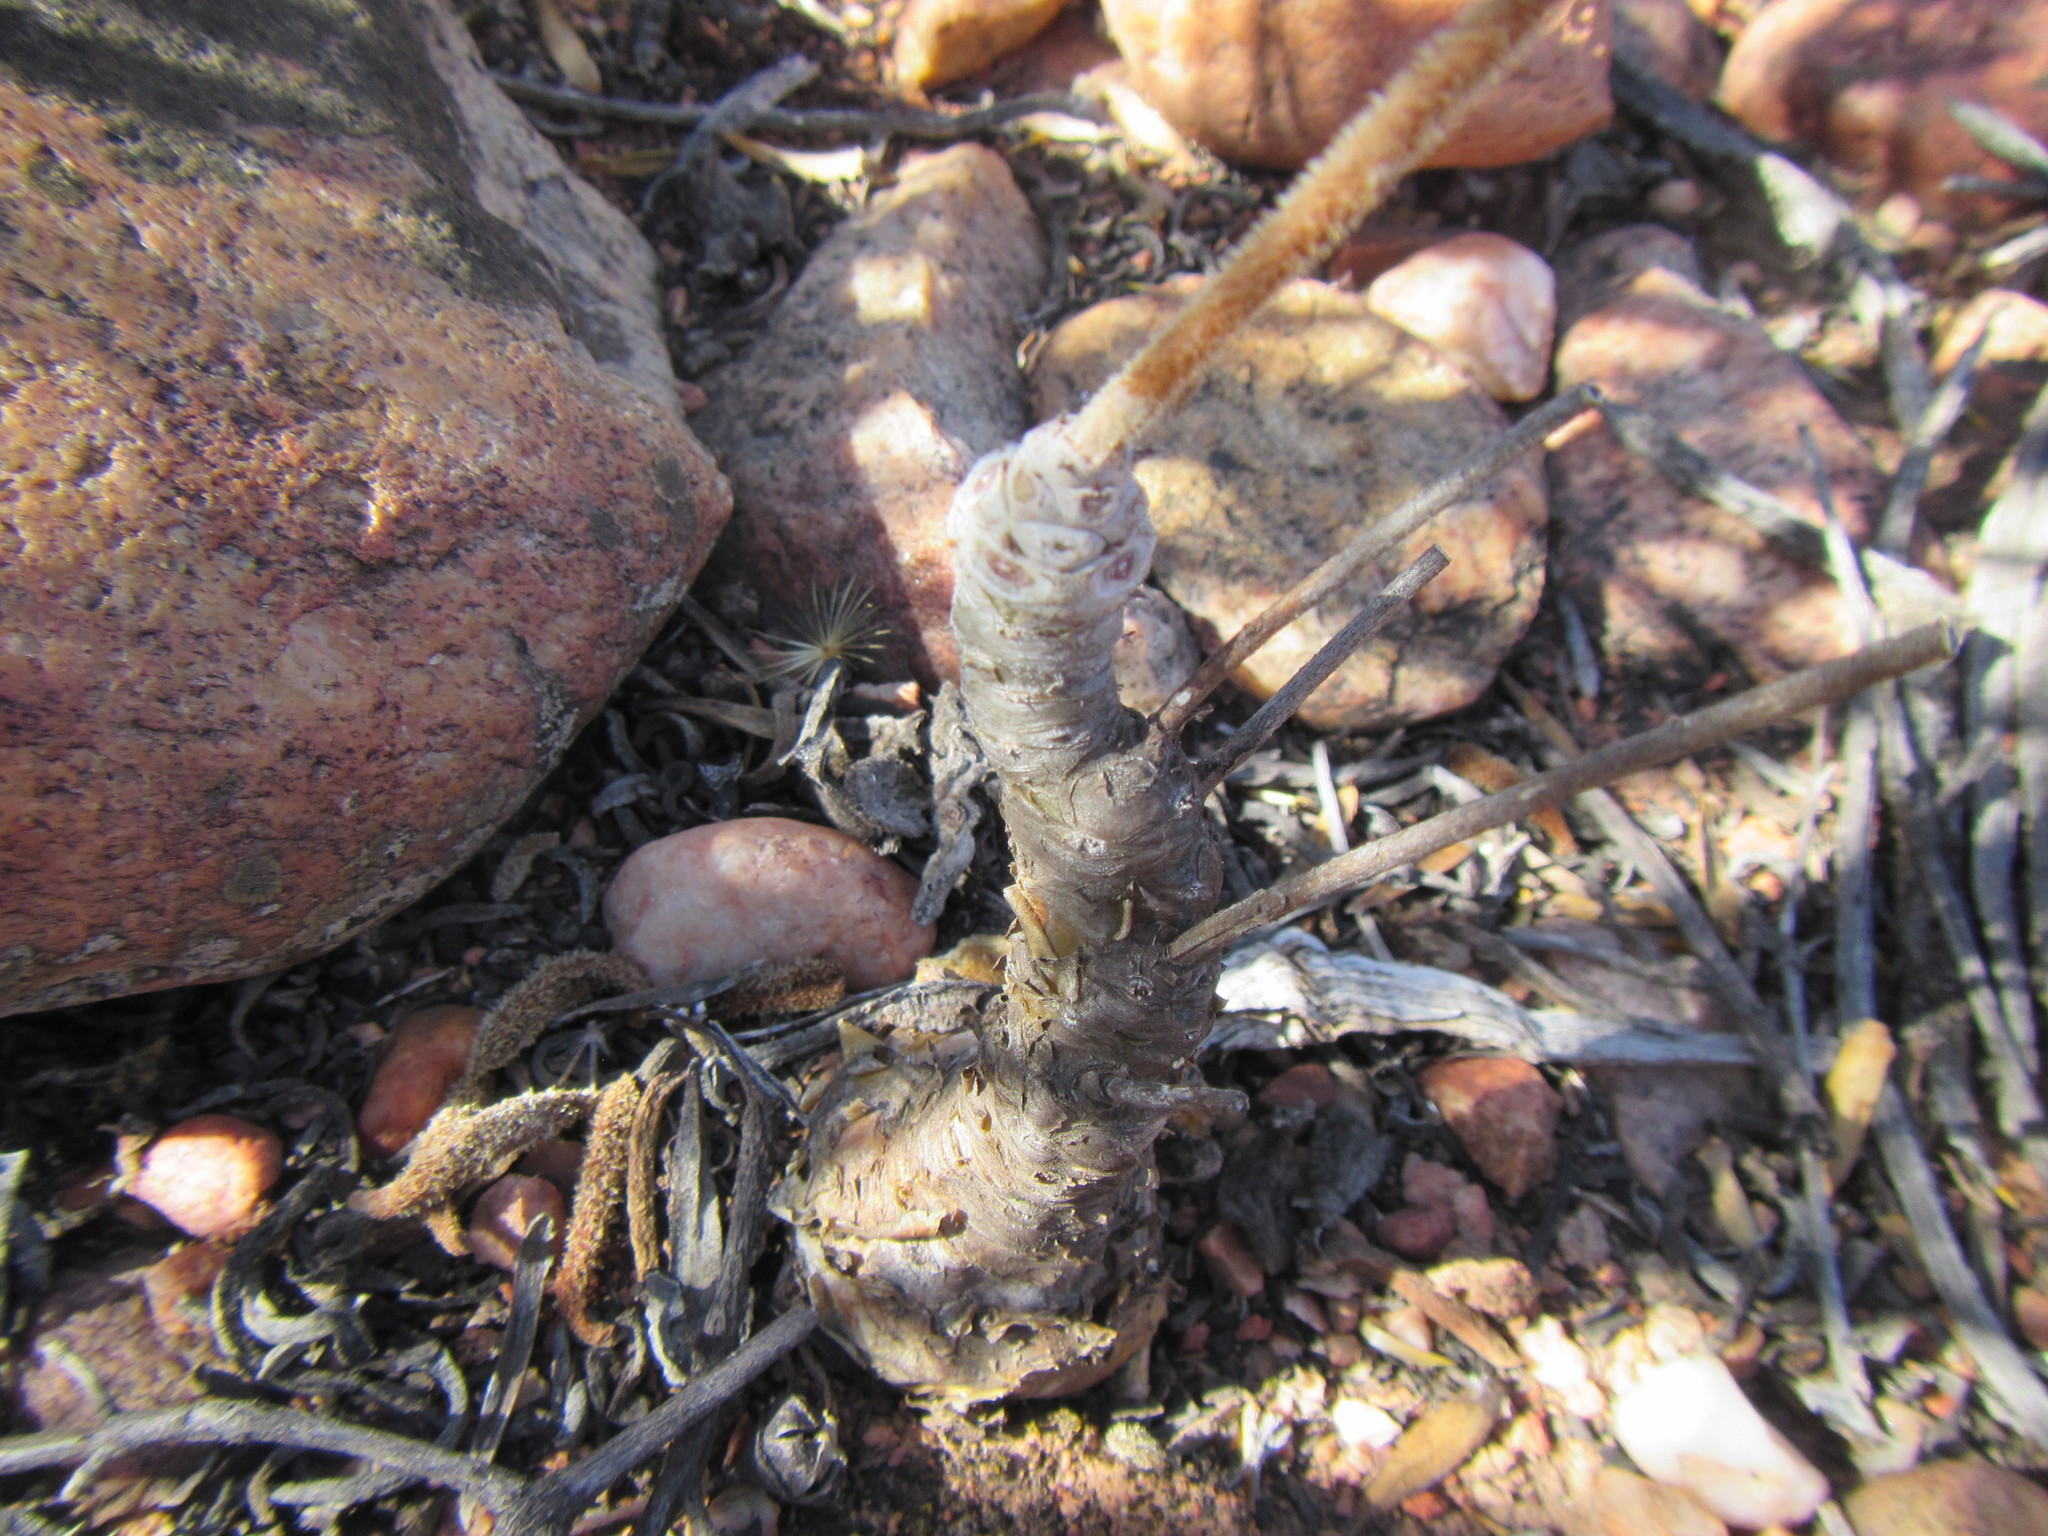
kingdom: Plantae
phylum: Tracheophyta
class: Magnoliopsida
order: Saxifragales
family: Crassulaceae
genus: Tylecodon
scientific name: Tylecodon leucothrix
